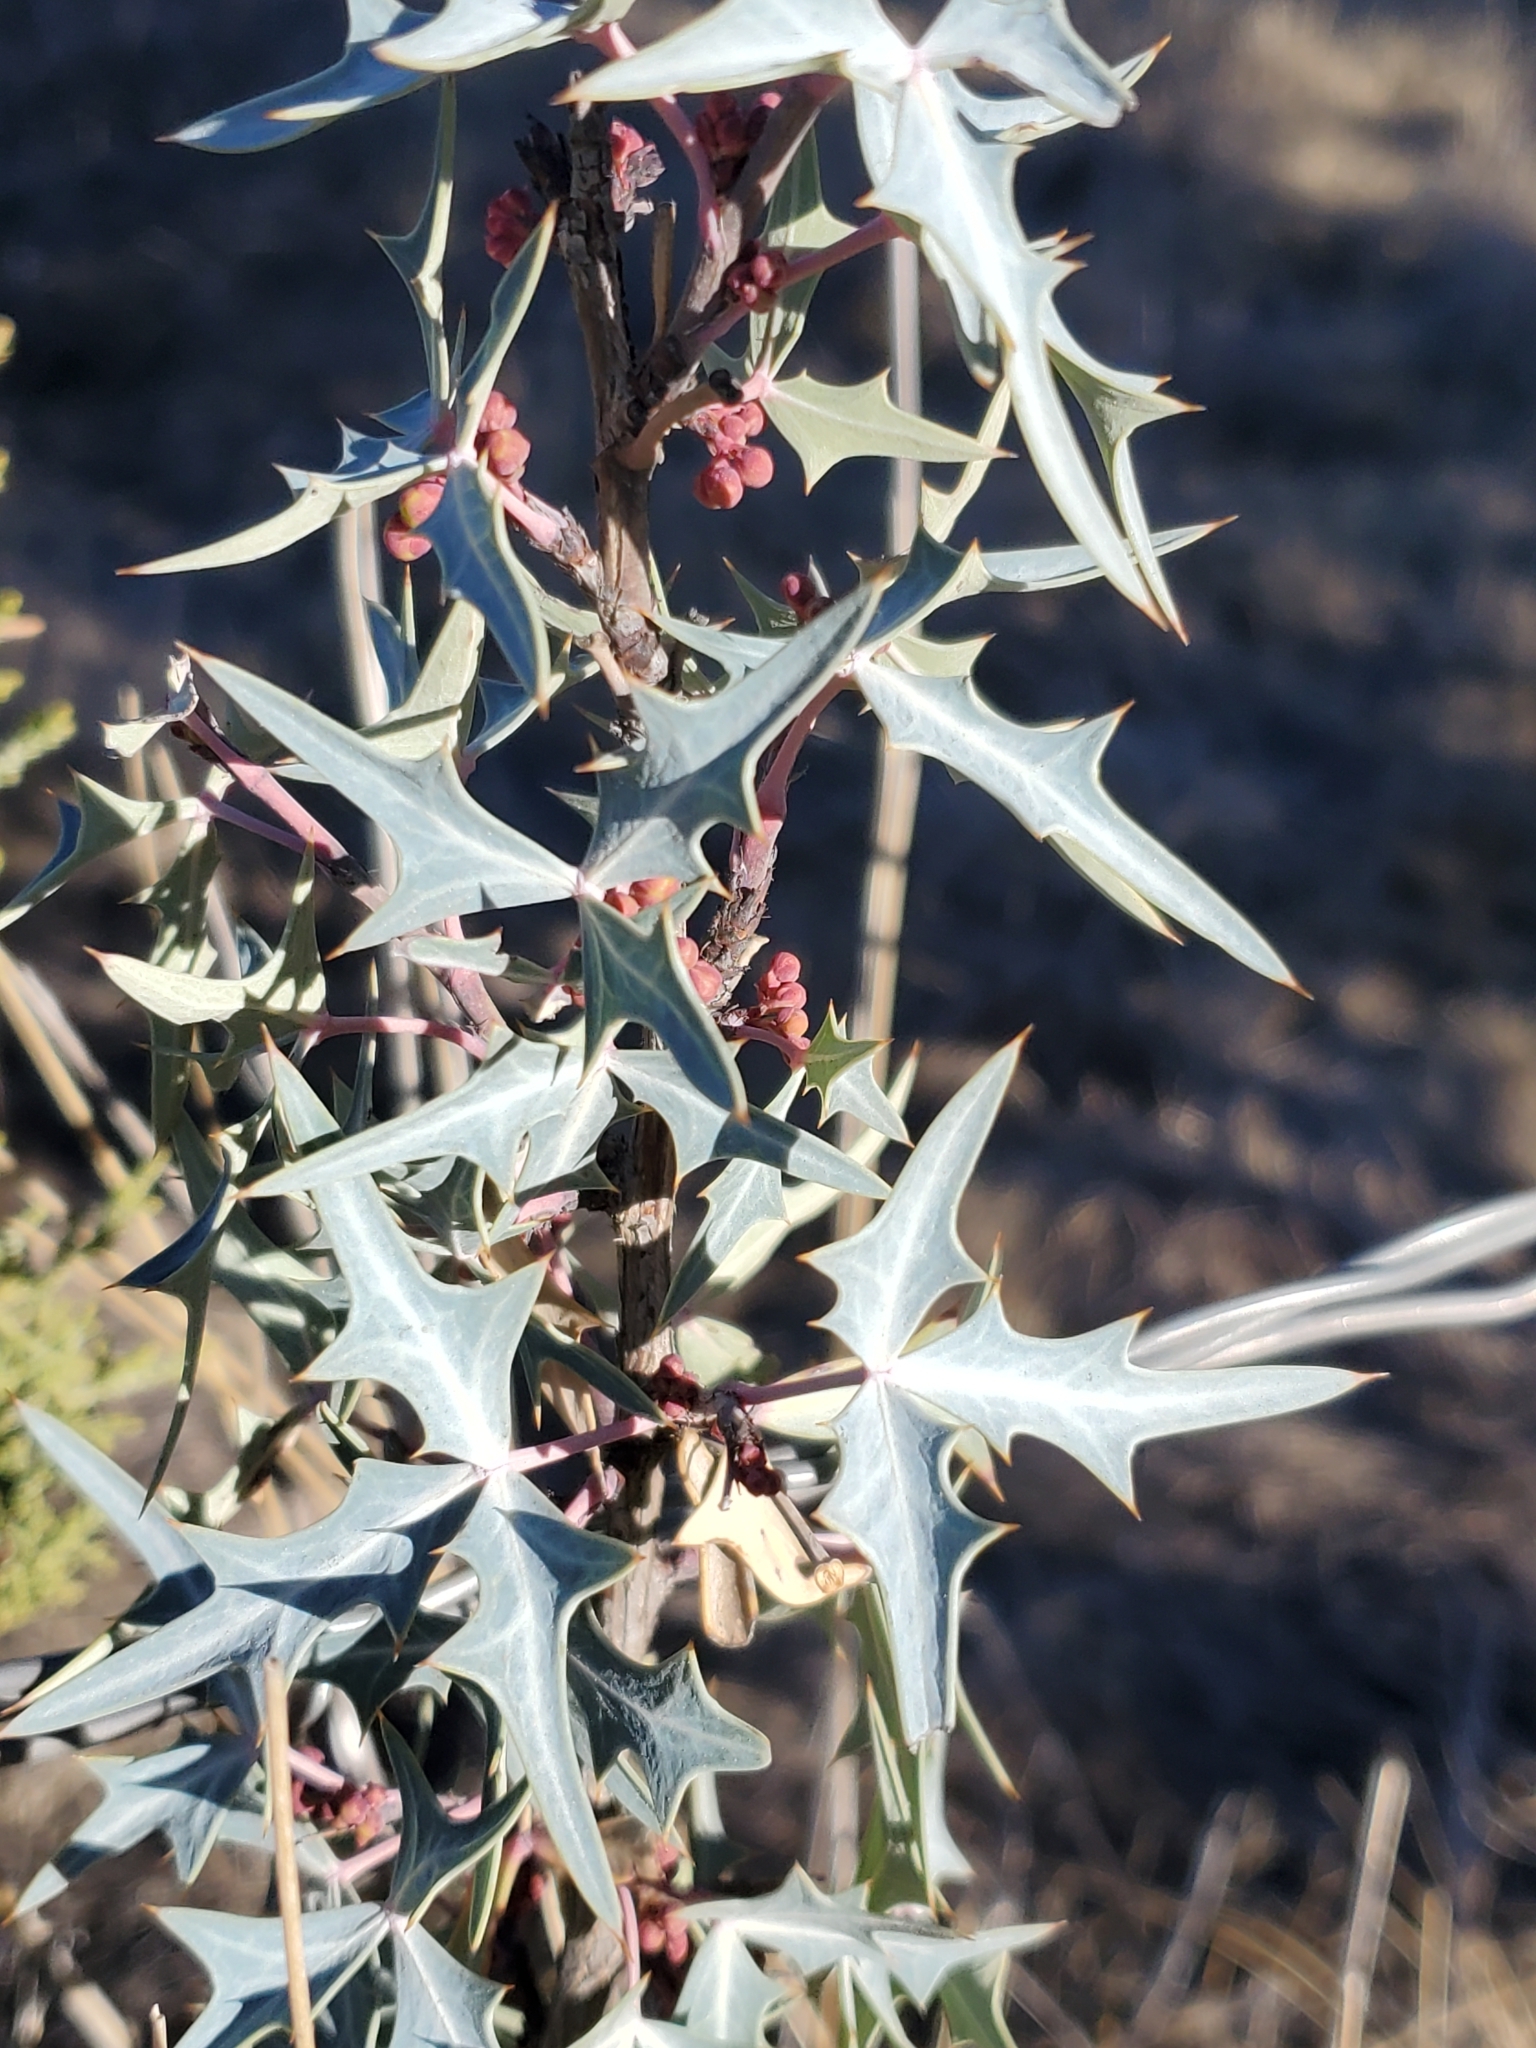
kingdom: Plantae
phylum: Tracheophyta
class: Magnoliopsida
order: Ranunculales
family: Berberidaceae
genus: Alloberberis
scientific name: Alloberberis trifoliolata
